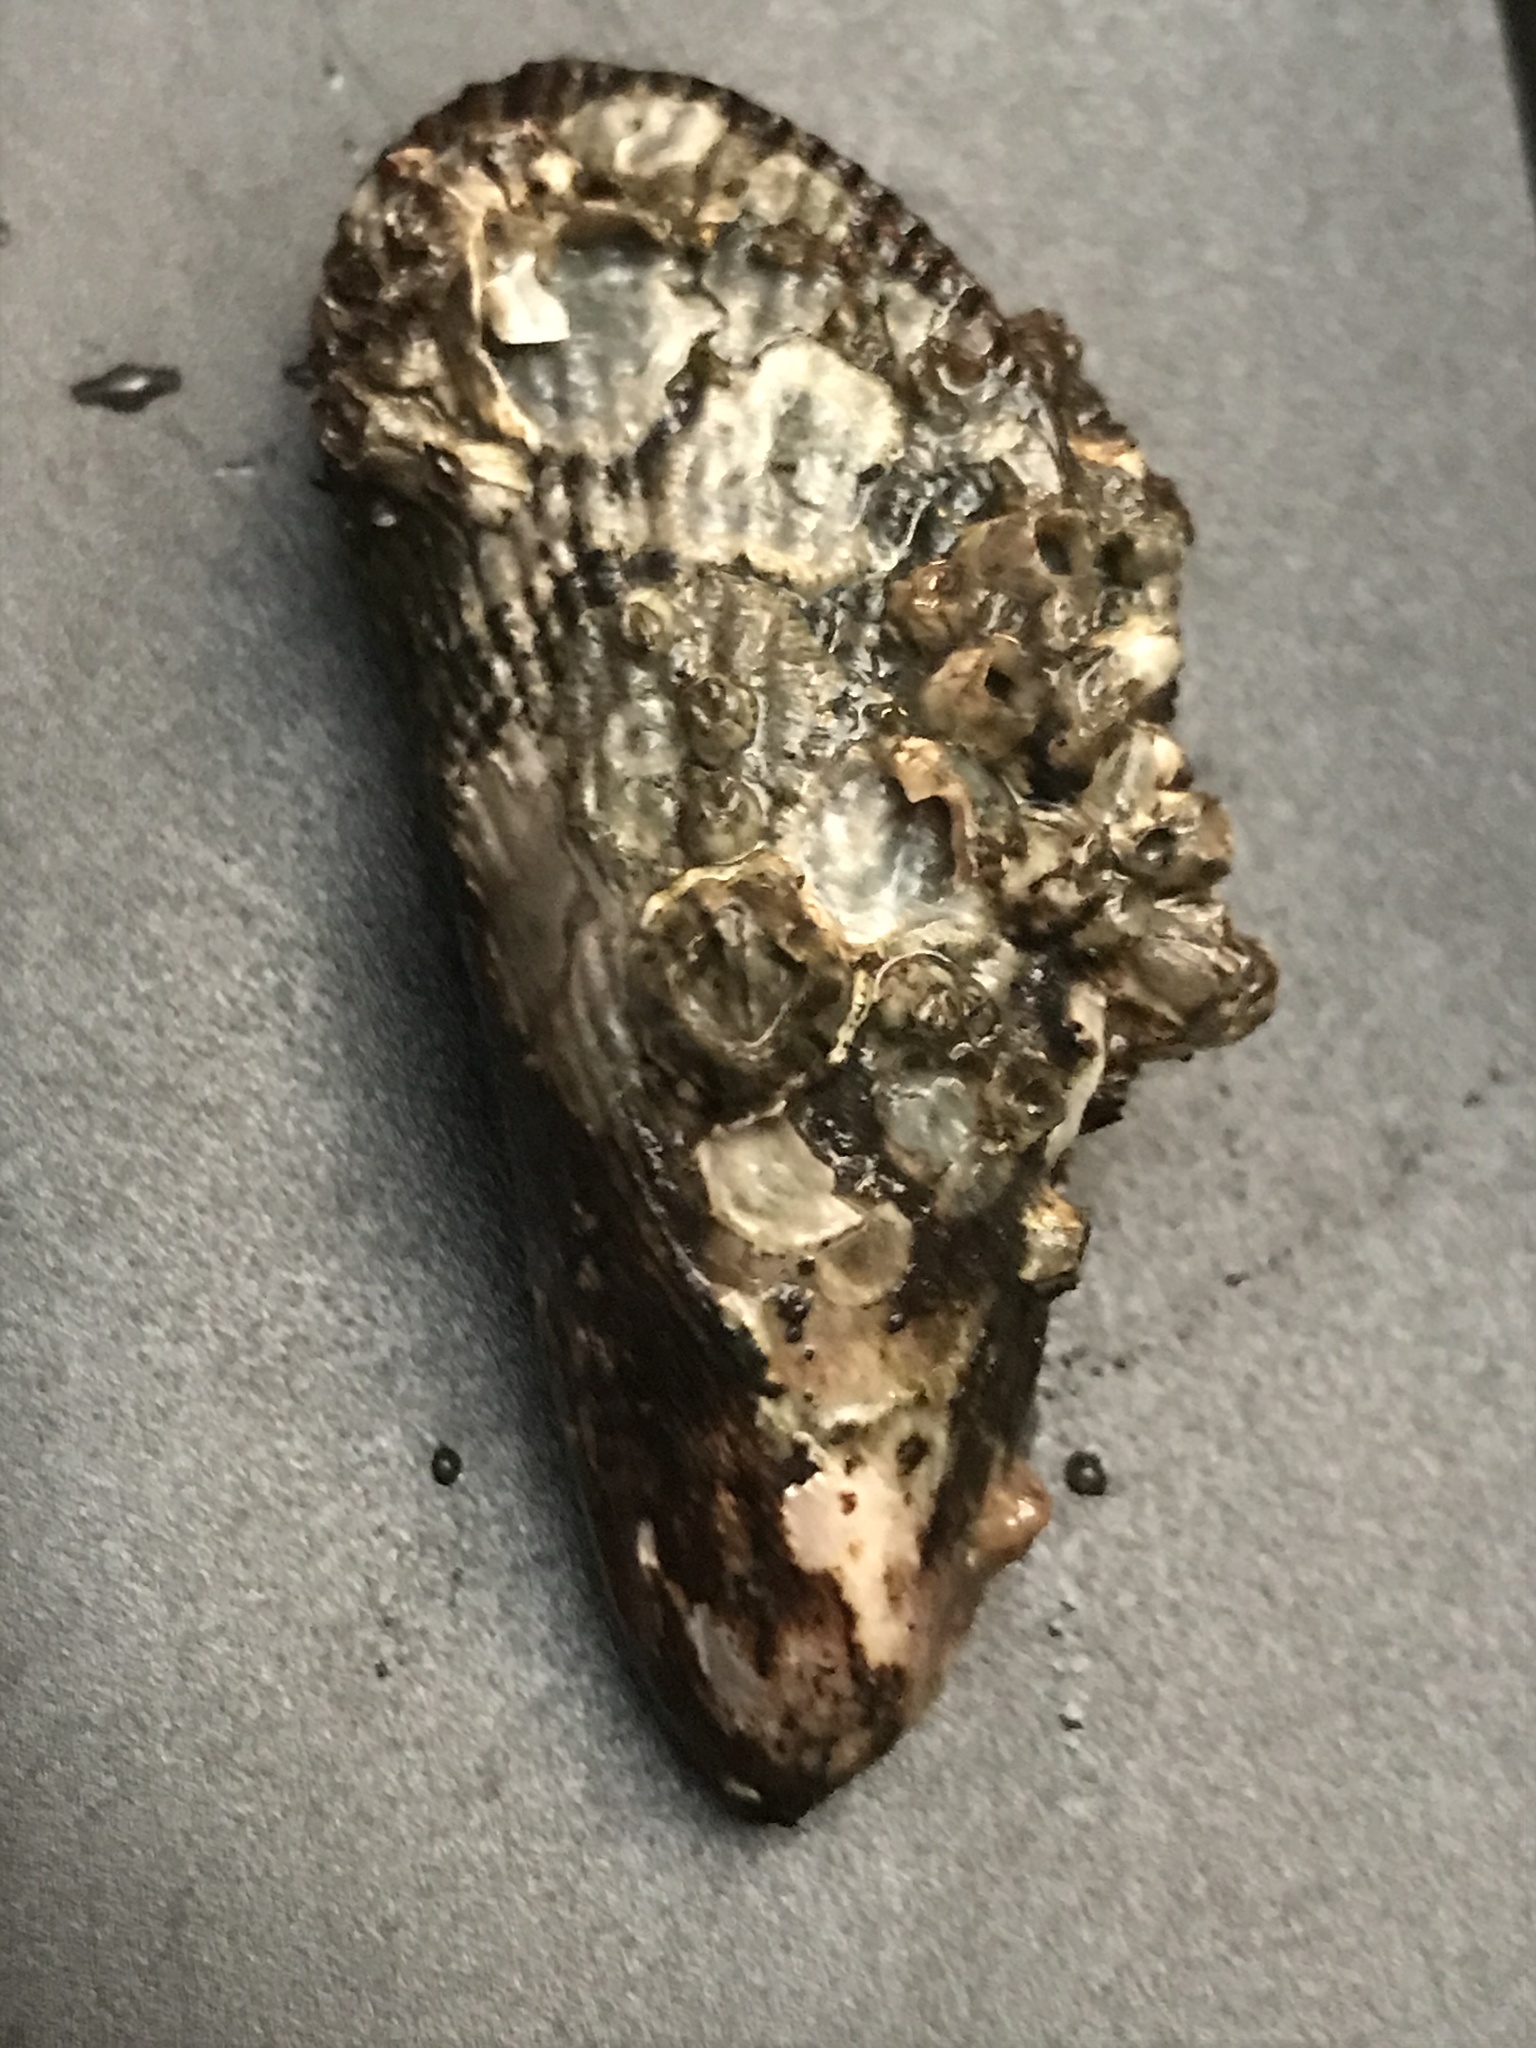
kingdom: Animalia
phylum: Mollusca
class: Bivalvia
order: Mytilida
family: Mytilidae
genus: Geukensia
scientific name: Geukensia demissa
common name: Ribbed mussel
